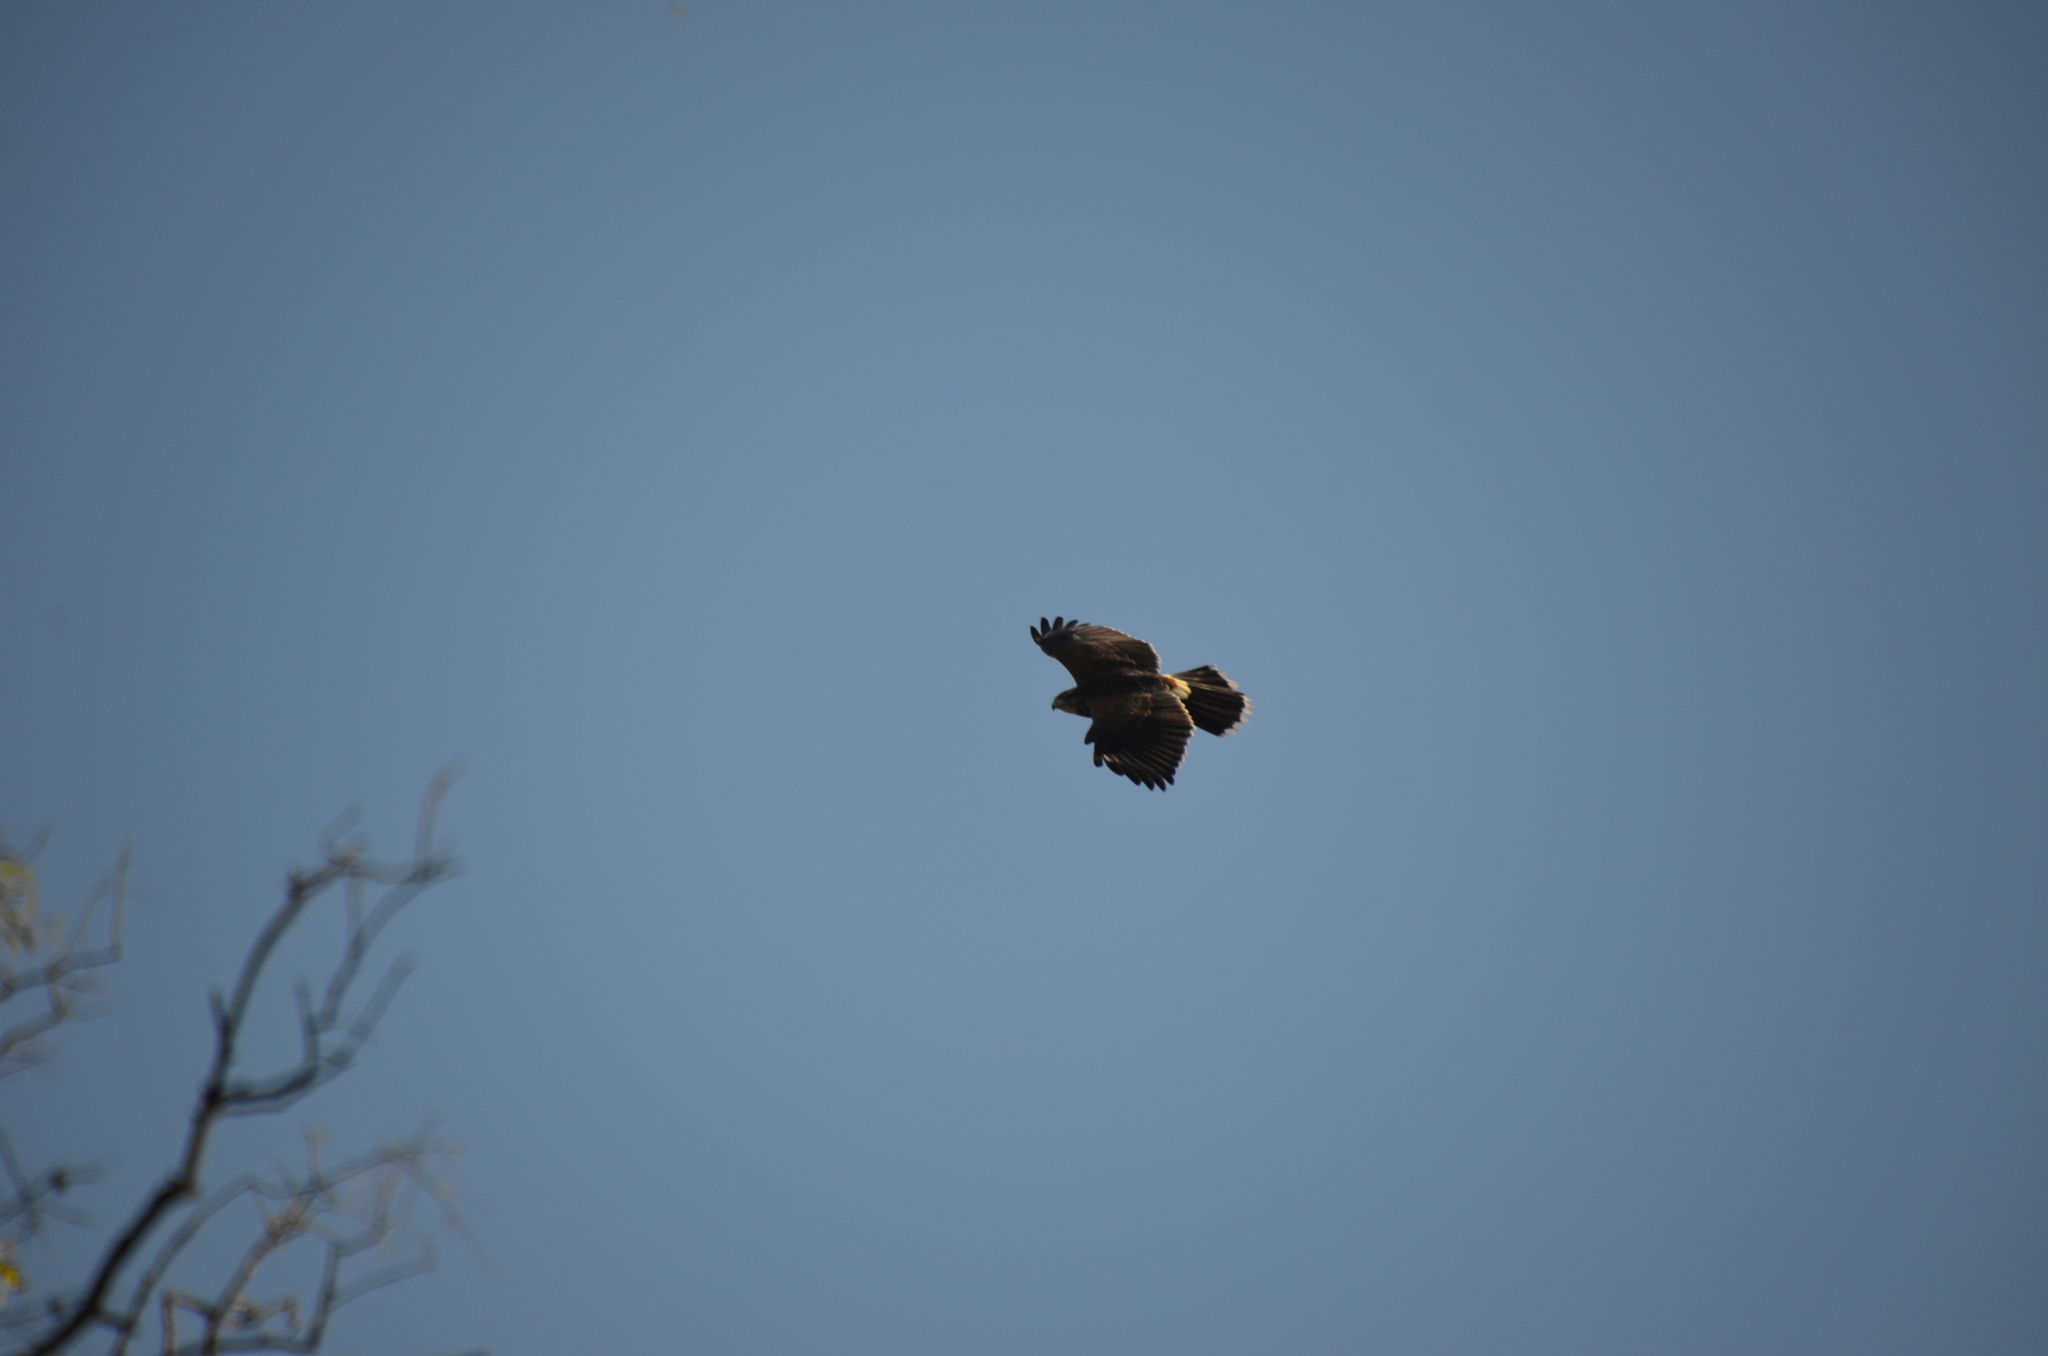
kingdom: Animalia
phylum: Chordata
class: Aves
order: Accipitriformes
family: Accipitridae
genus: Parabuteo
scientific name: Parabuteo unicinctus
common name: Harris's hawk
